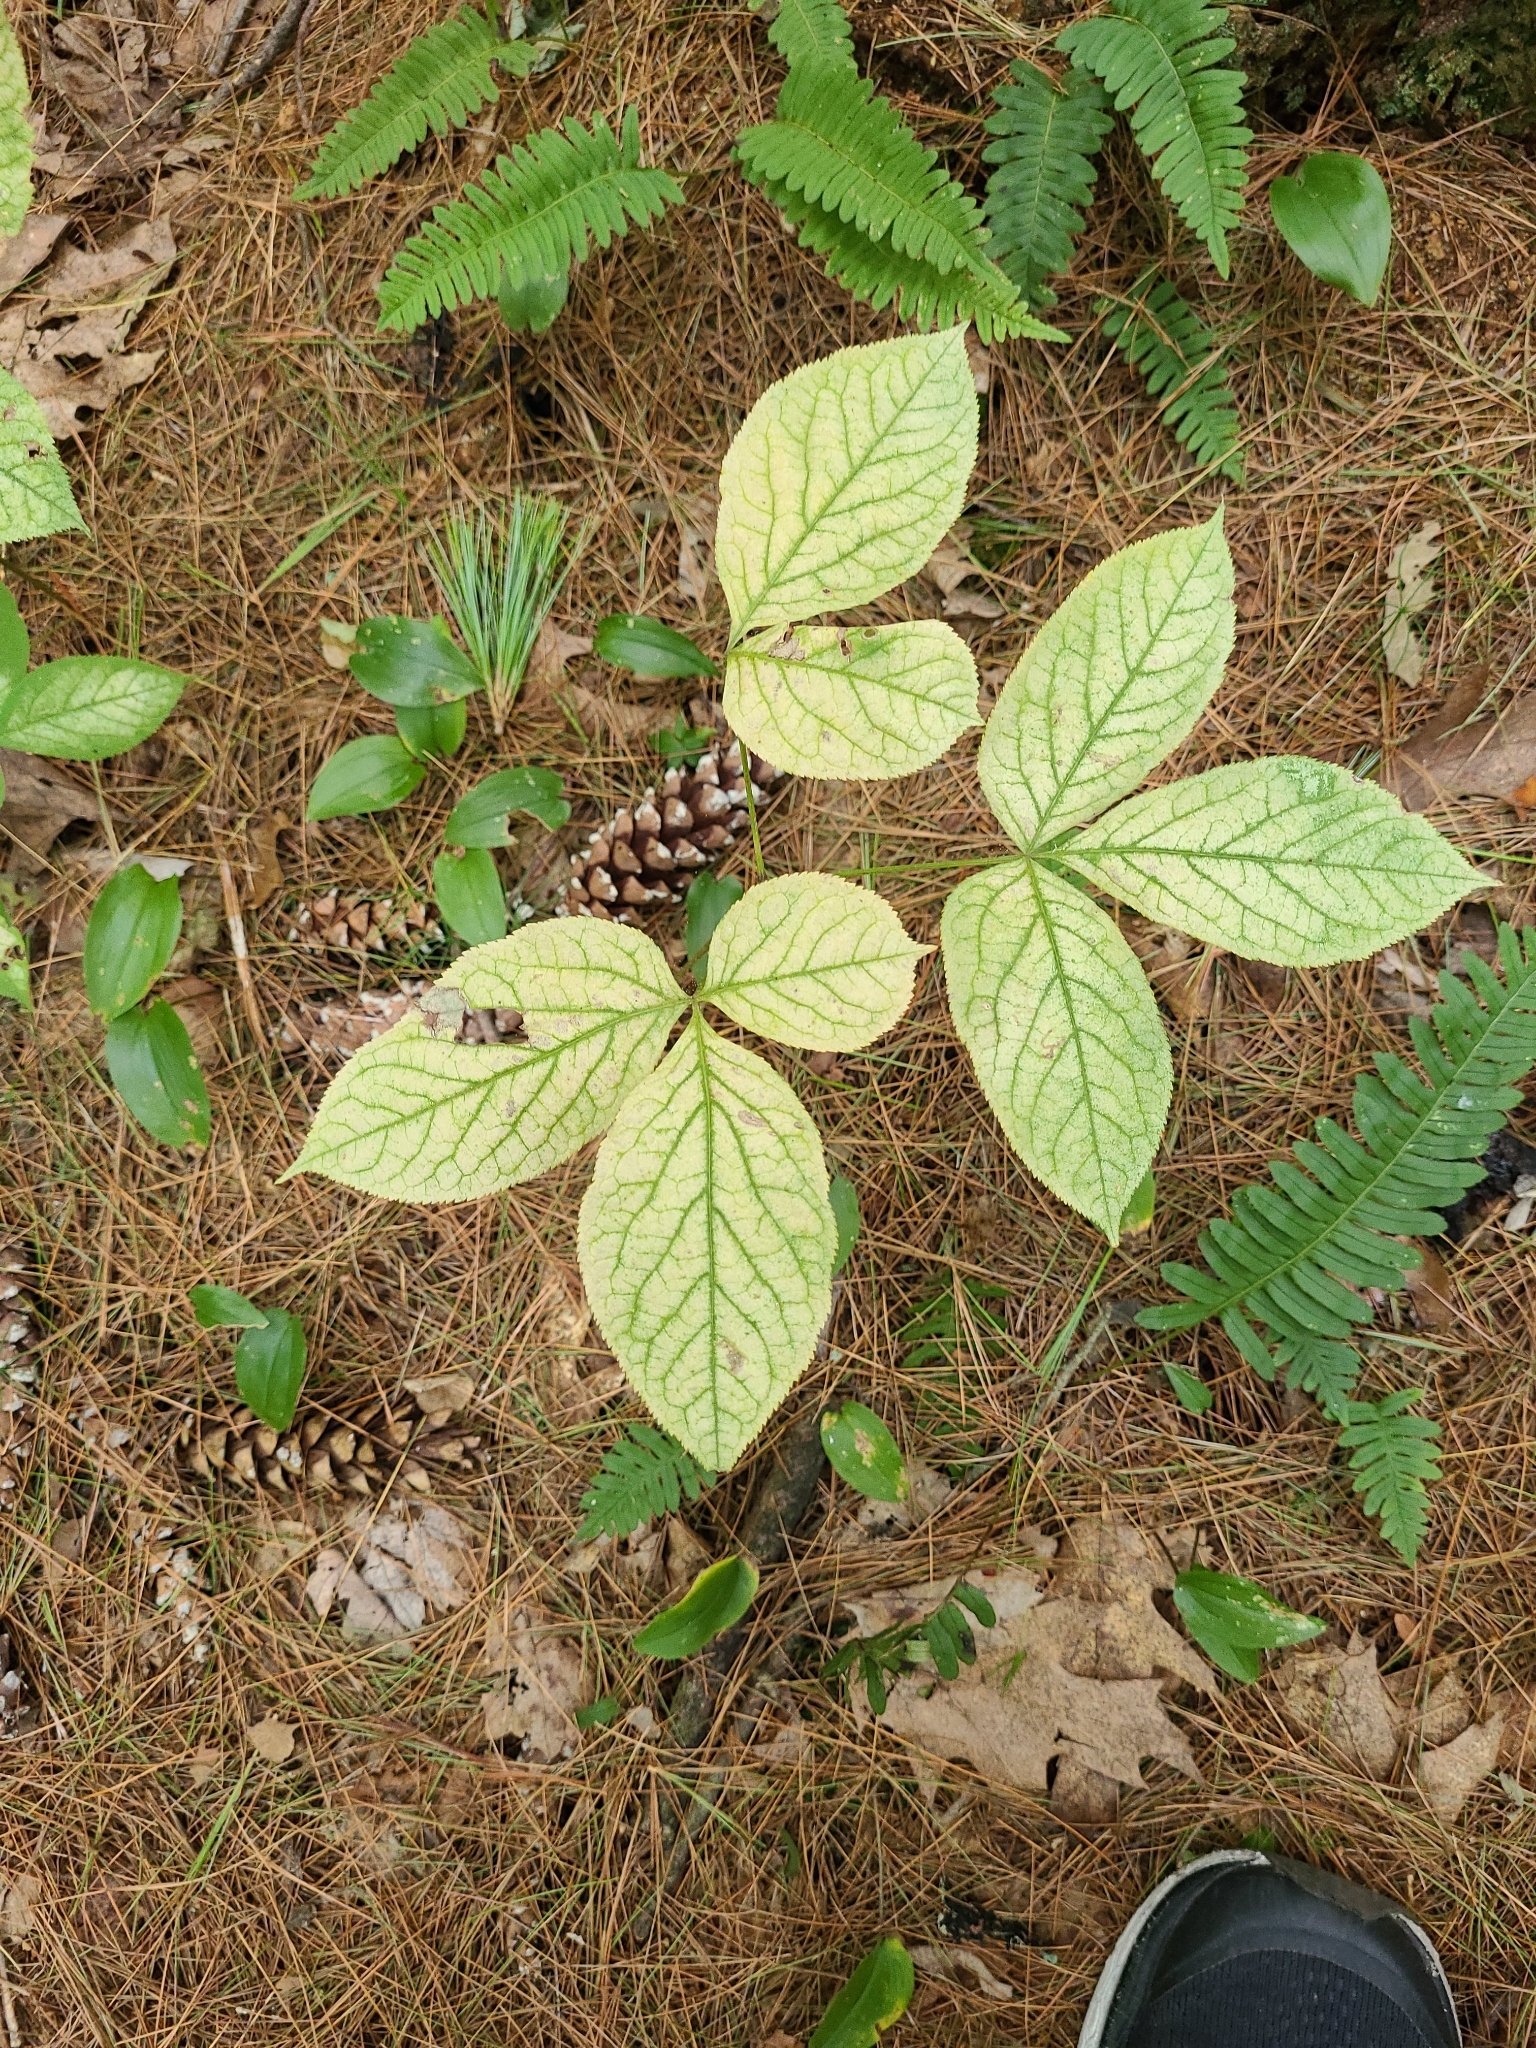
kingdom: Plantae
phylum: Tracheophyta
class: Magnoliopsida
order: Apiales
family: Araliaceae
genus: Aralia
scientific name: Aralia nudicaulis
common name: Wild sarsaparilla
